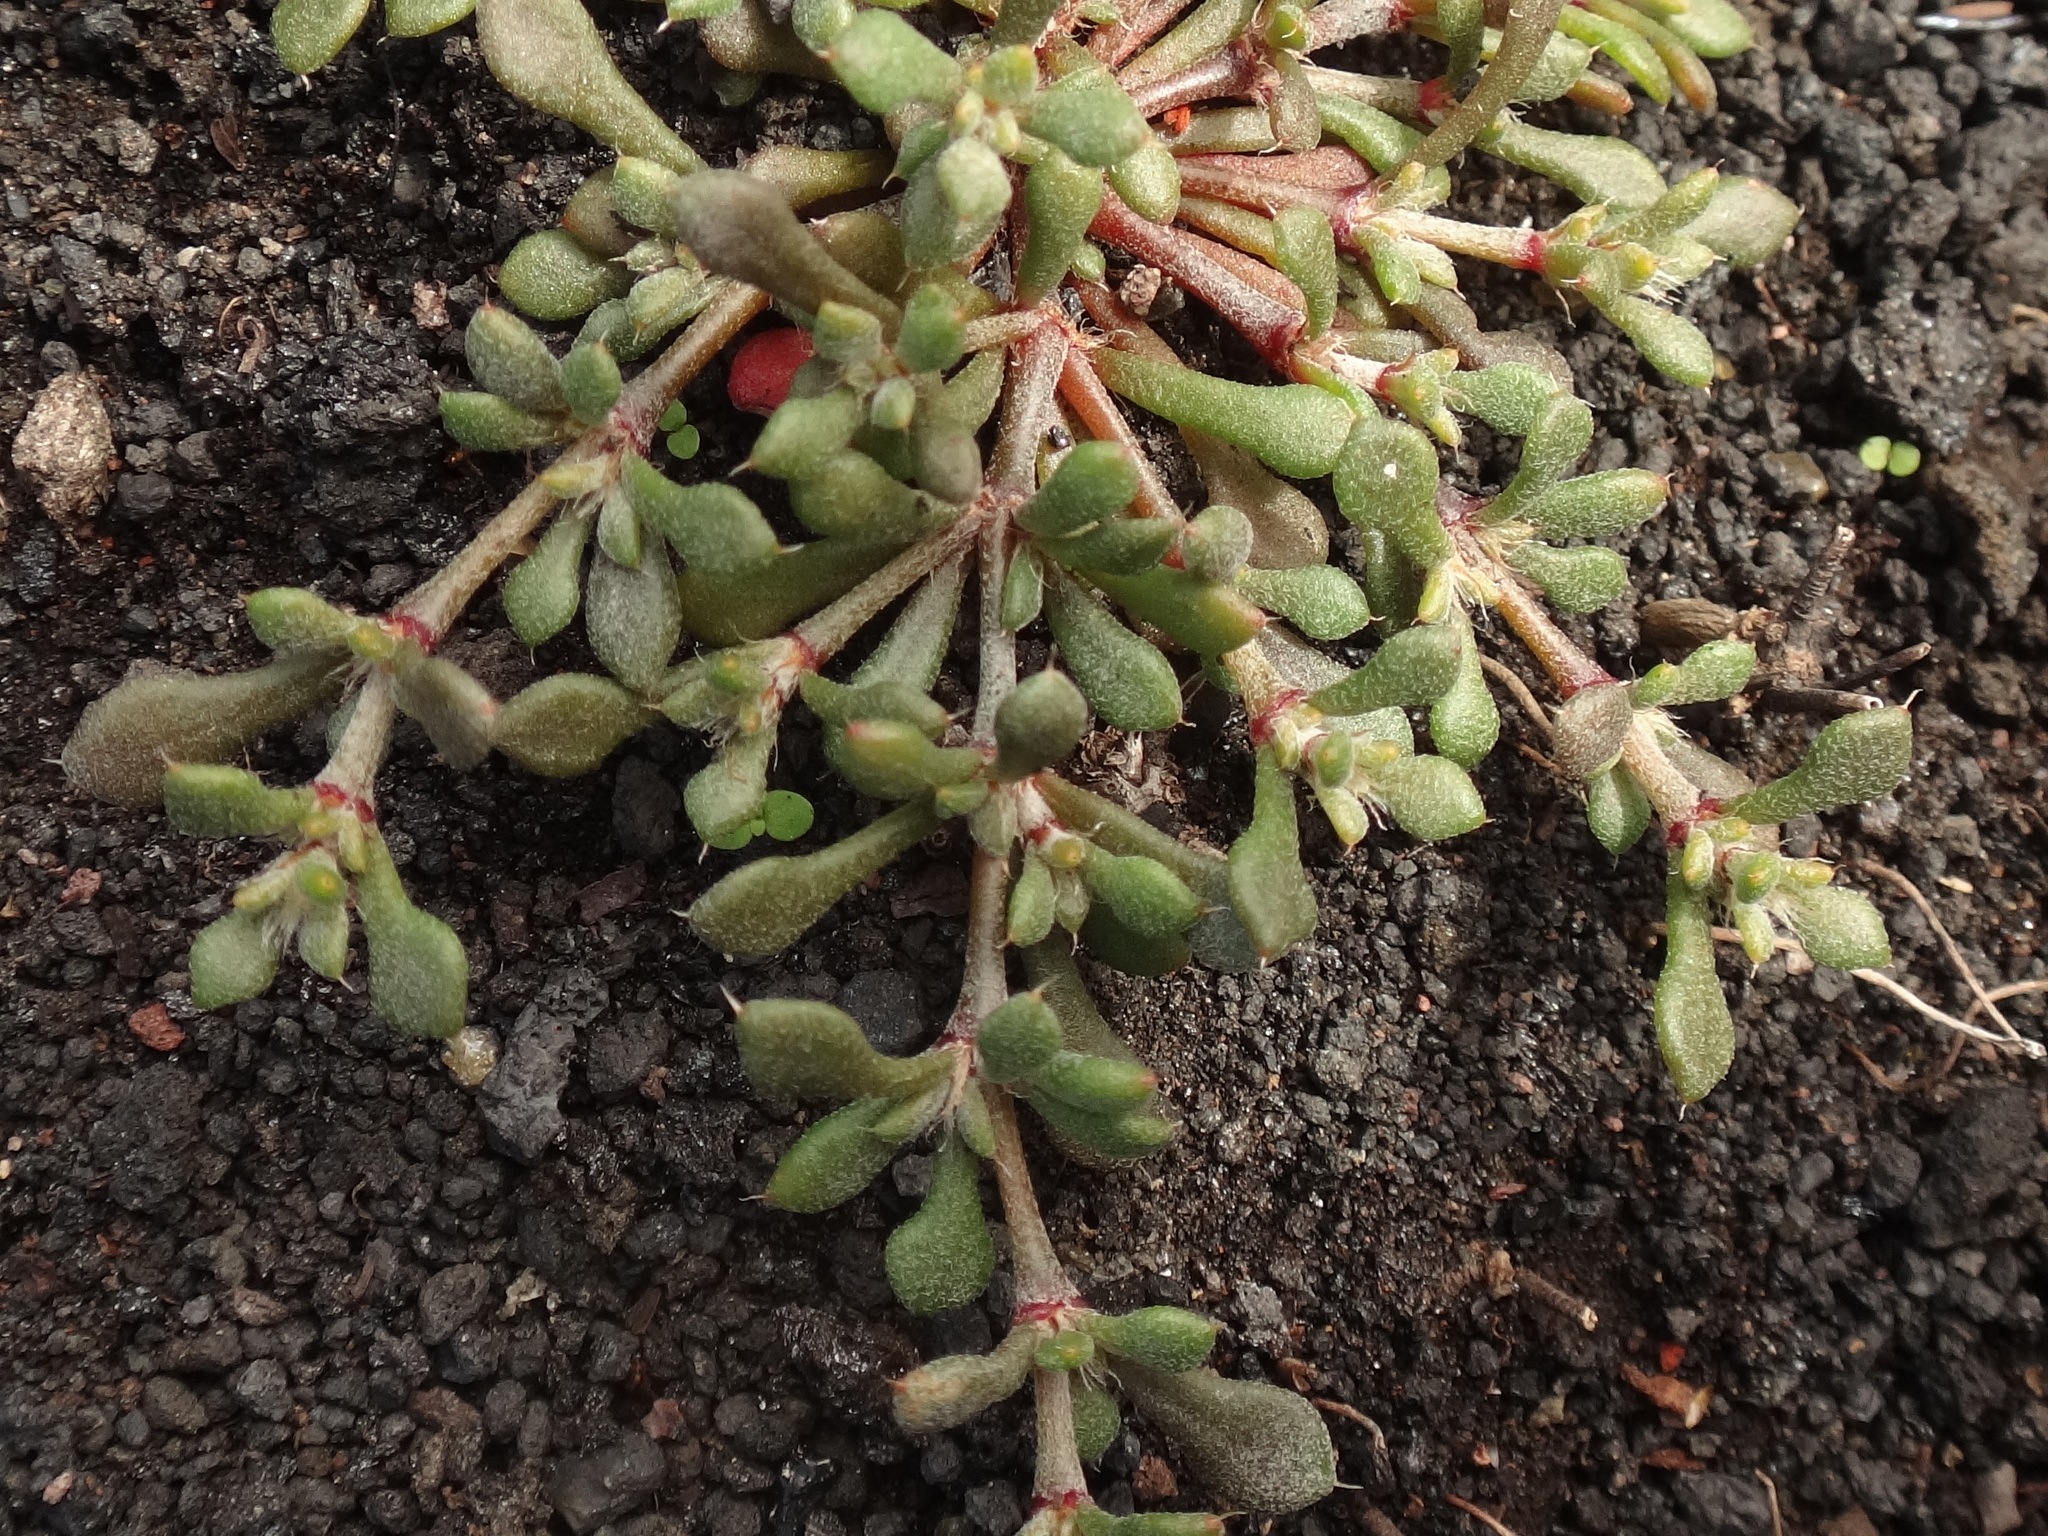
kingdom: Plantae
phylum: Tracheophyta
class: Magnoliopsida
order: Caryophyllales
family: Caryophyllaceae
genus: Polycarpaea
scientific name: Polycarpaea divaricata
